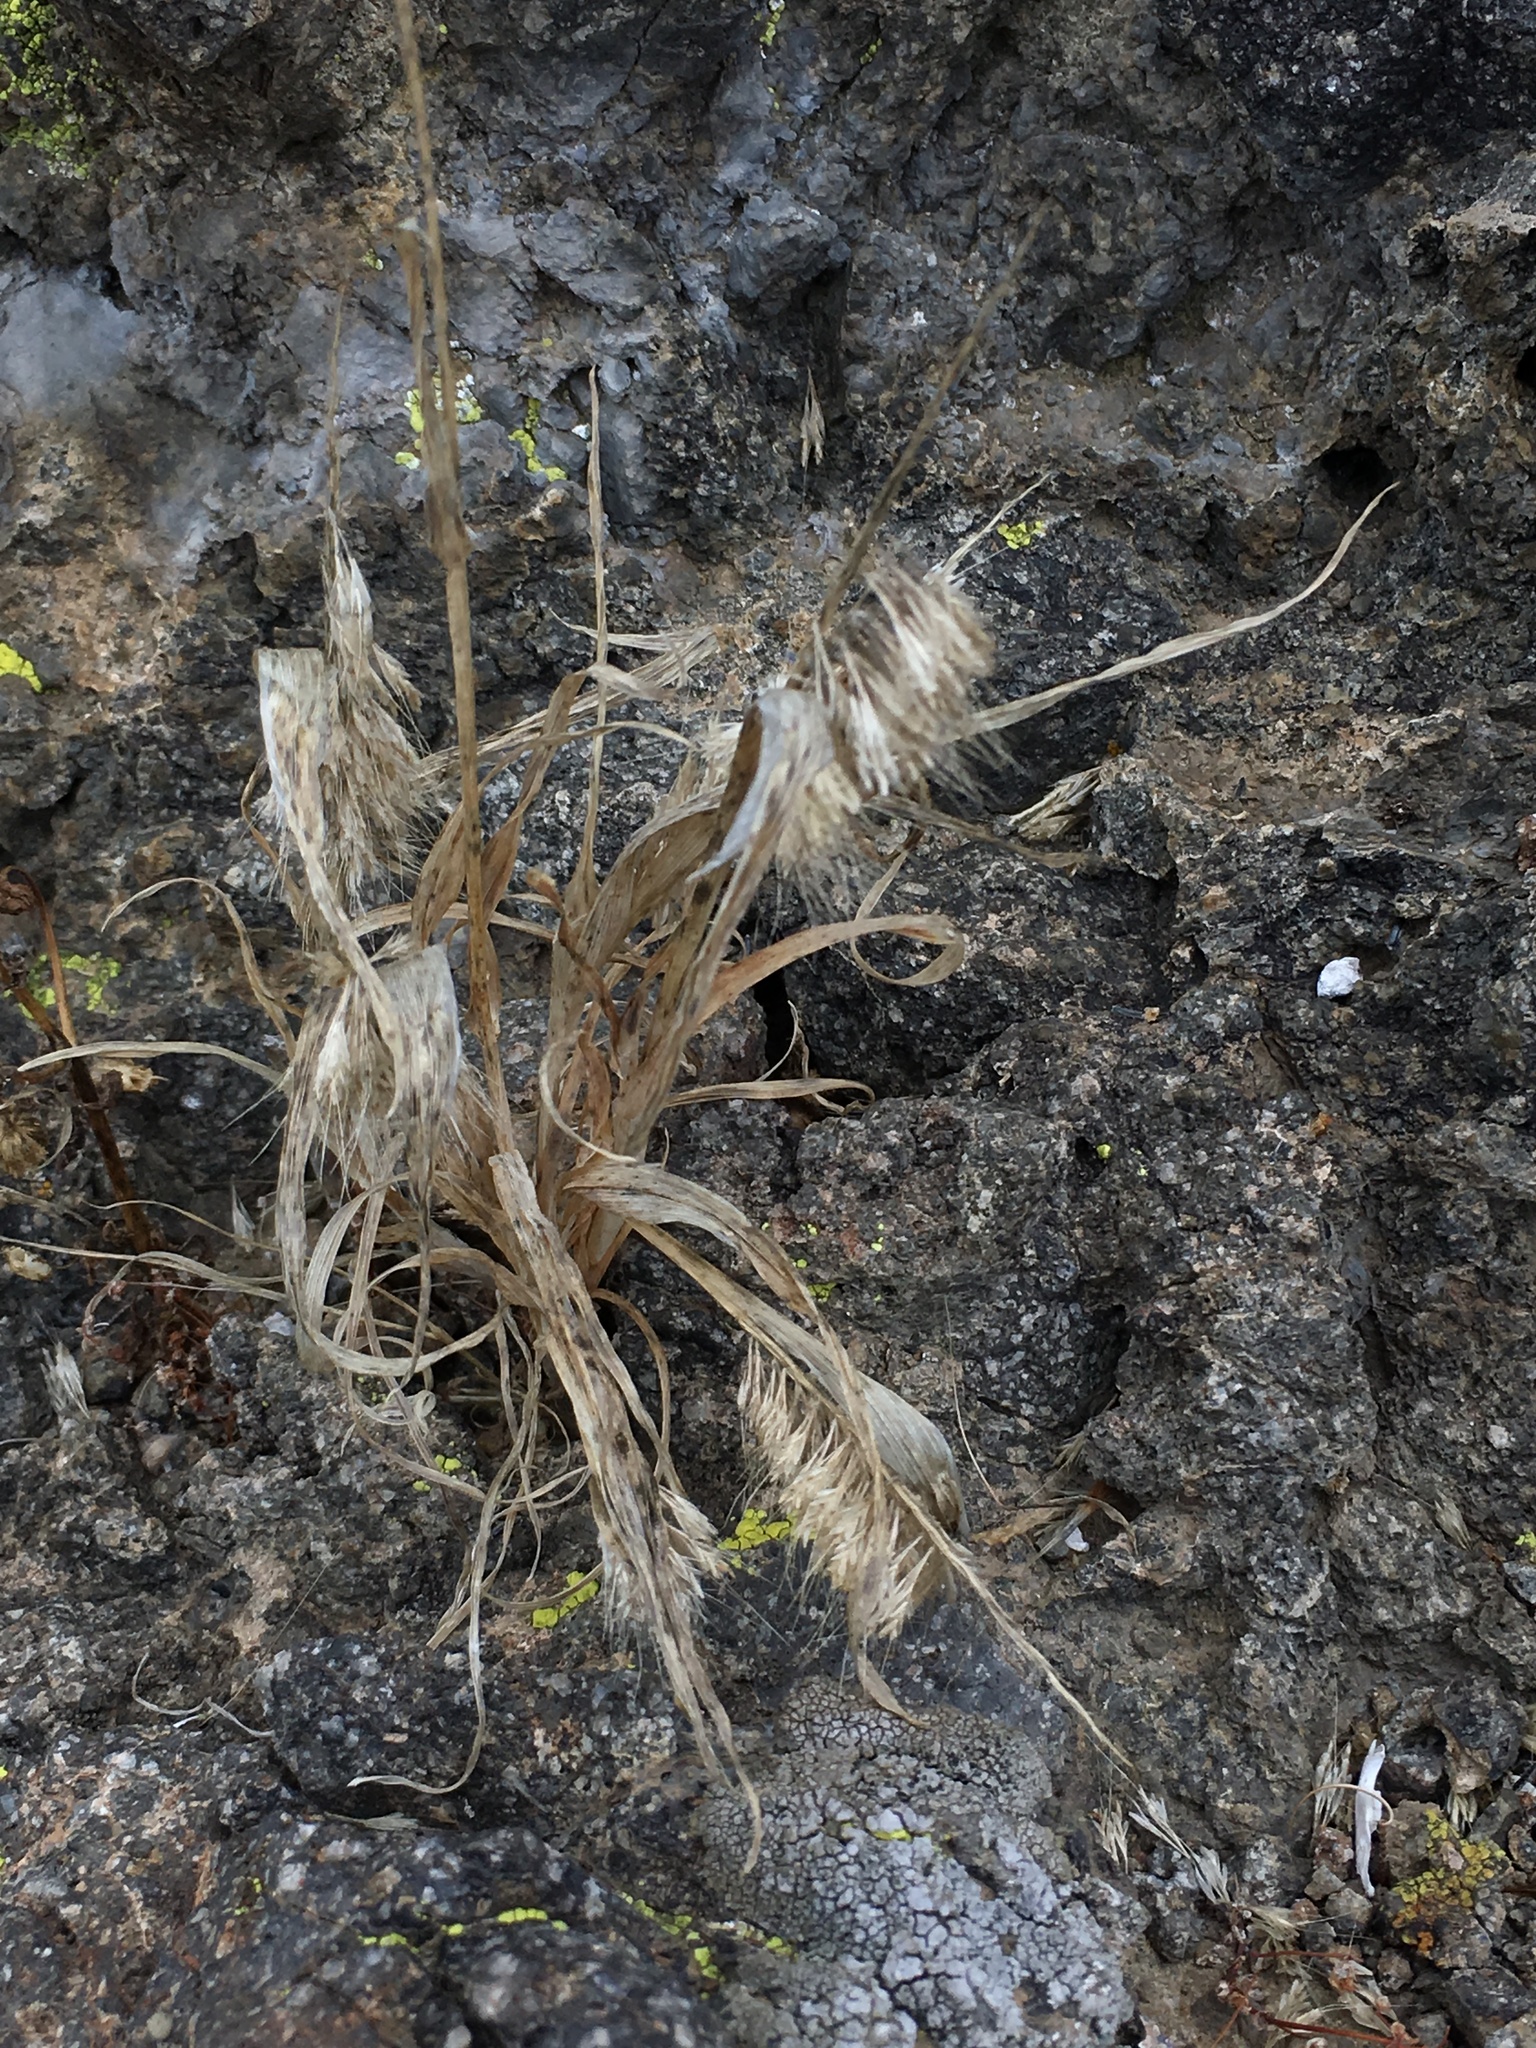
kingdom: Plantae
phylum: Tracheophyta
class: Liliopsida
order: Poales
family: Poaceae
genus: Lamarckia
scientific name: Lamarckia aurea
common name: Golden dog's-tail
